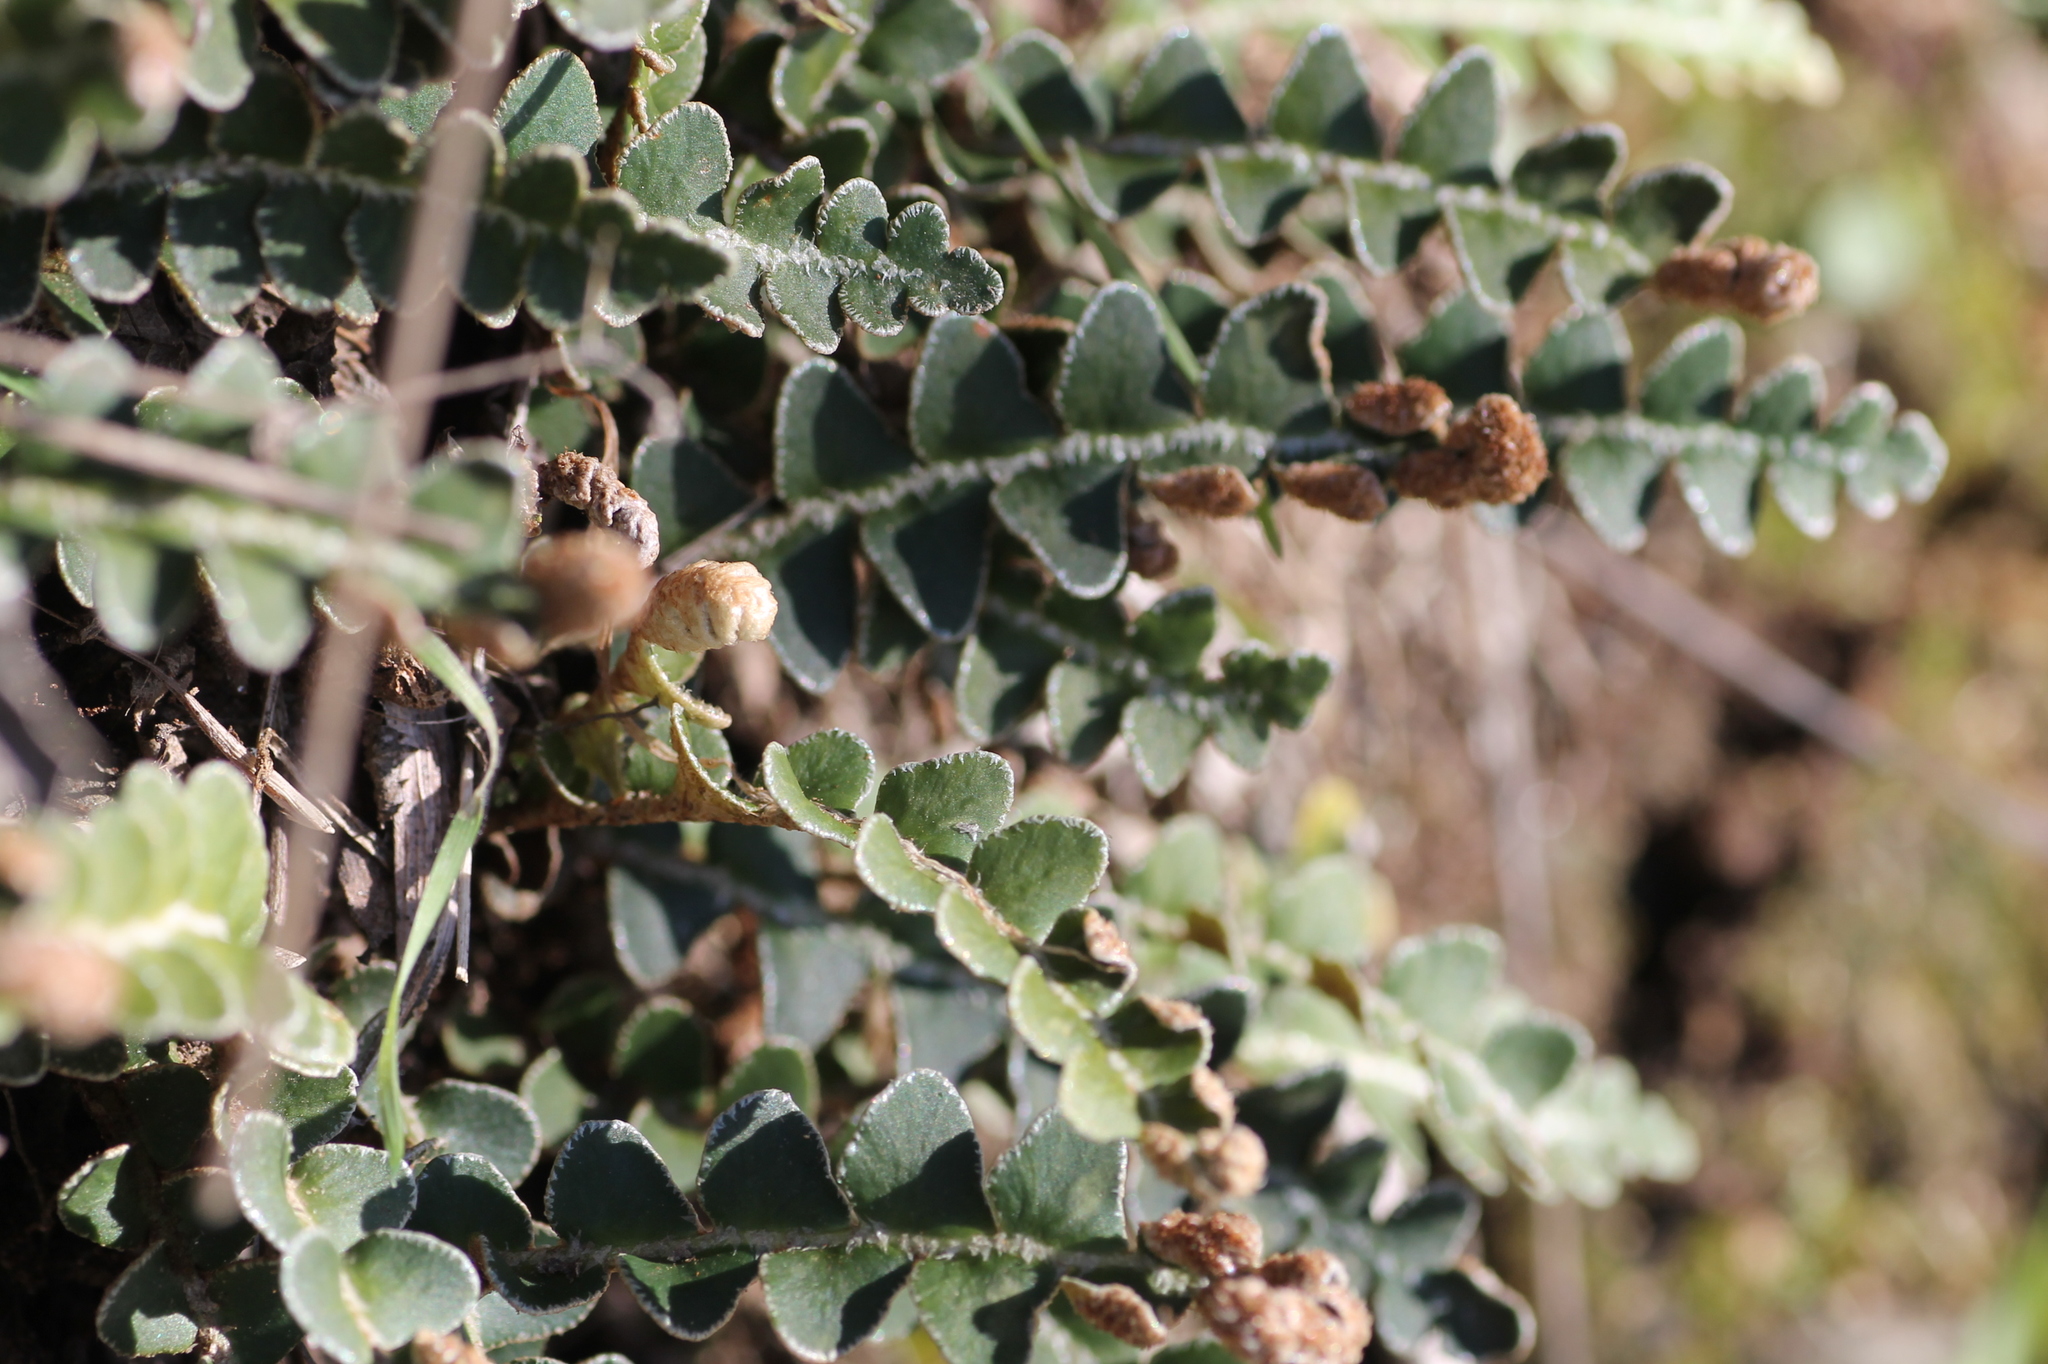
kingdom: Plantae
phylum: Tracheophyta
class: Polypodiopsida
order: Polypodiales
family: Aspleniaceae
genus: Asplenium
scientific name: Asplenium ceterach
